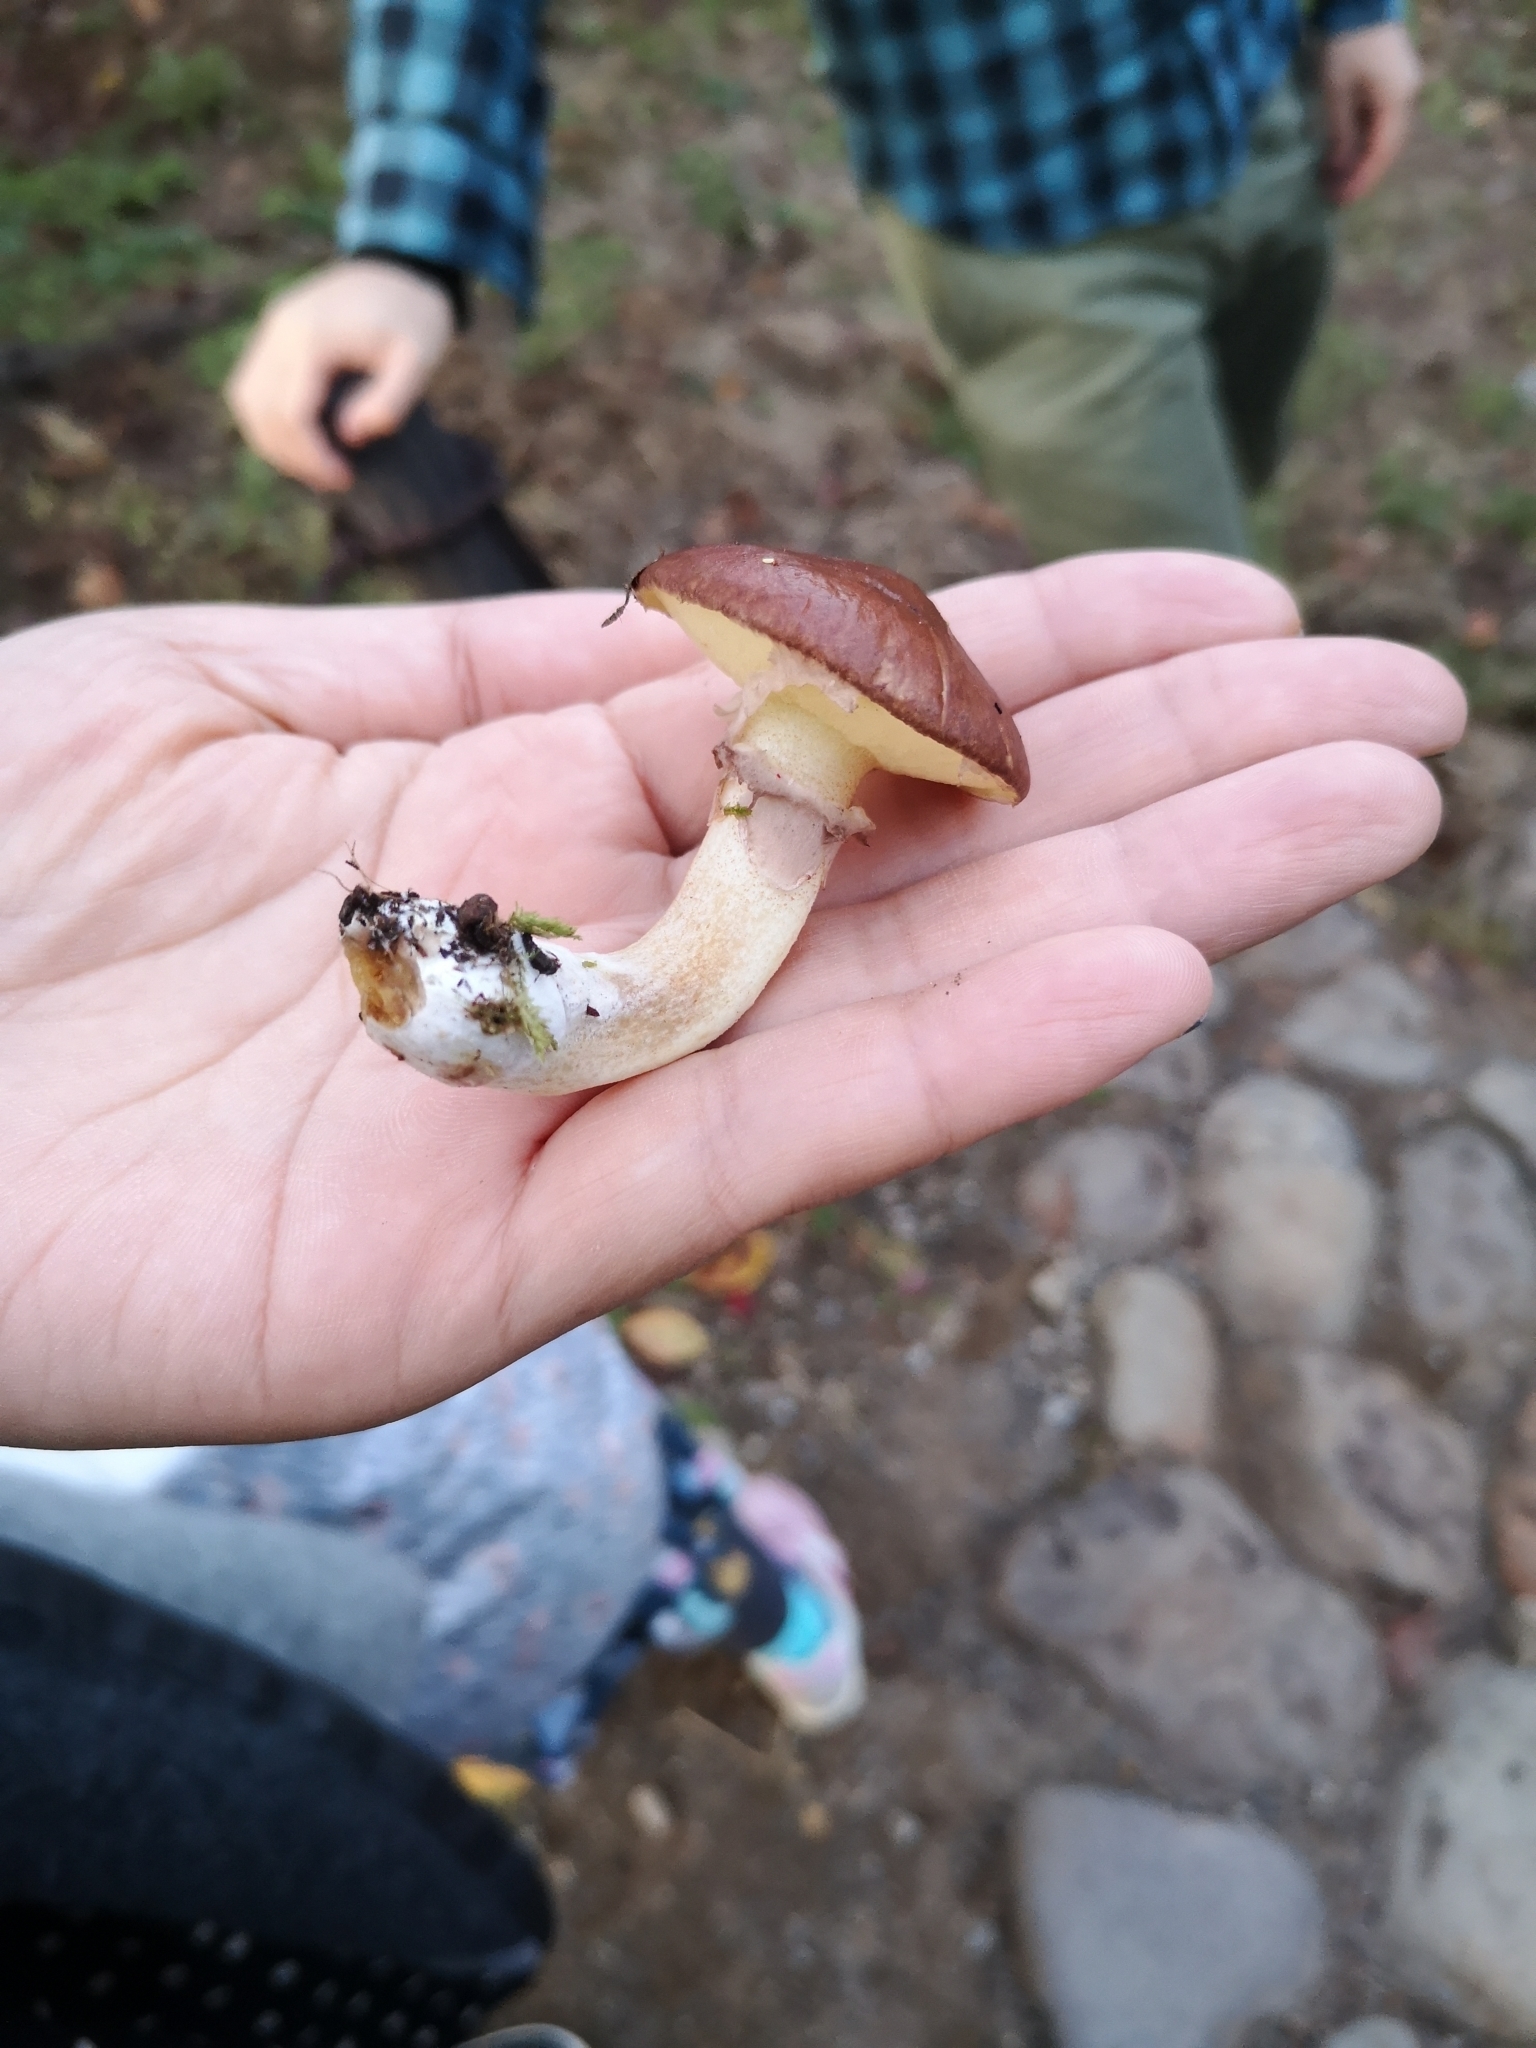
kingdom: Fungi
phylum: Basidiomycota
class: Agaricomycetes
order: Boletales
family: Suillaceae
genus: Suillus
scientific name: Suillus luteus
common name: Slippery jack
